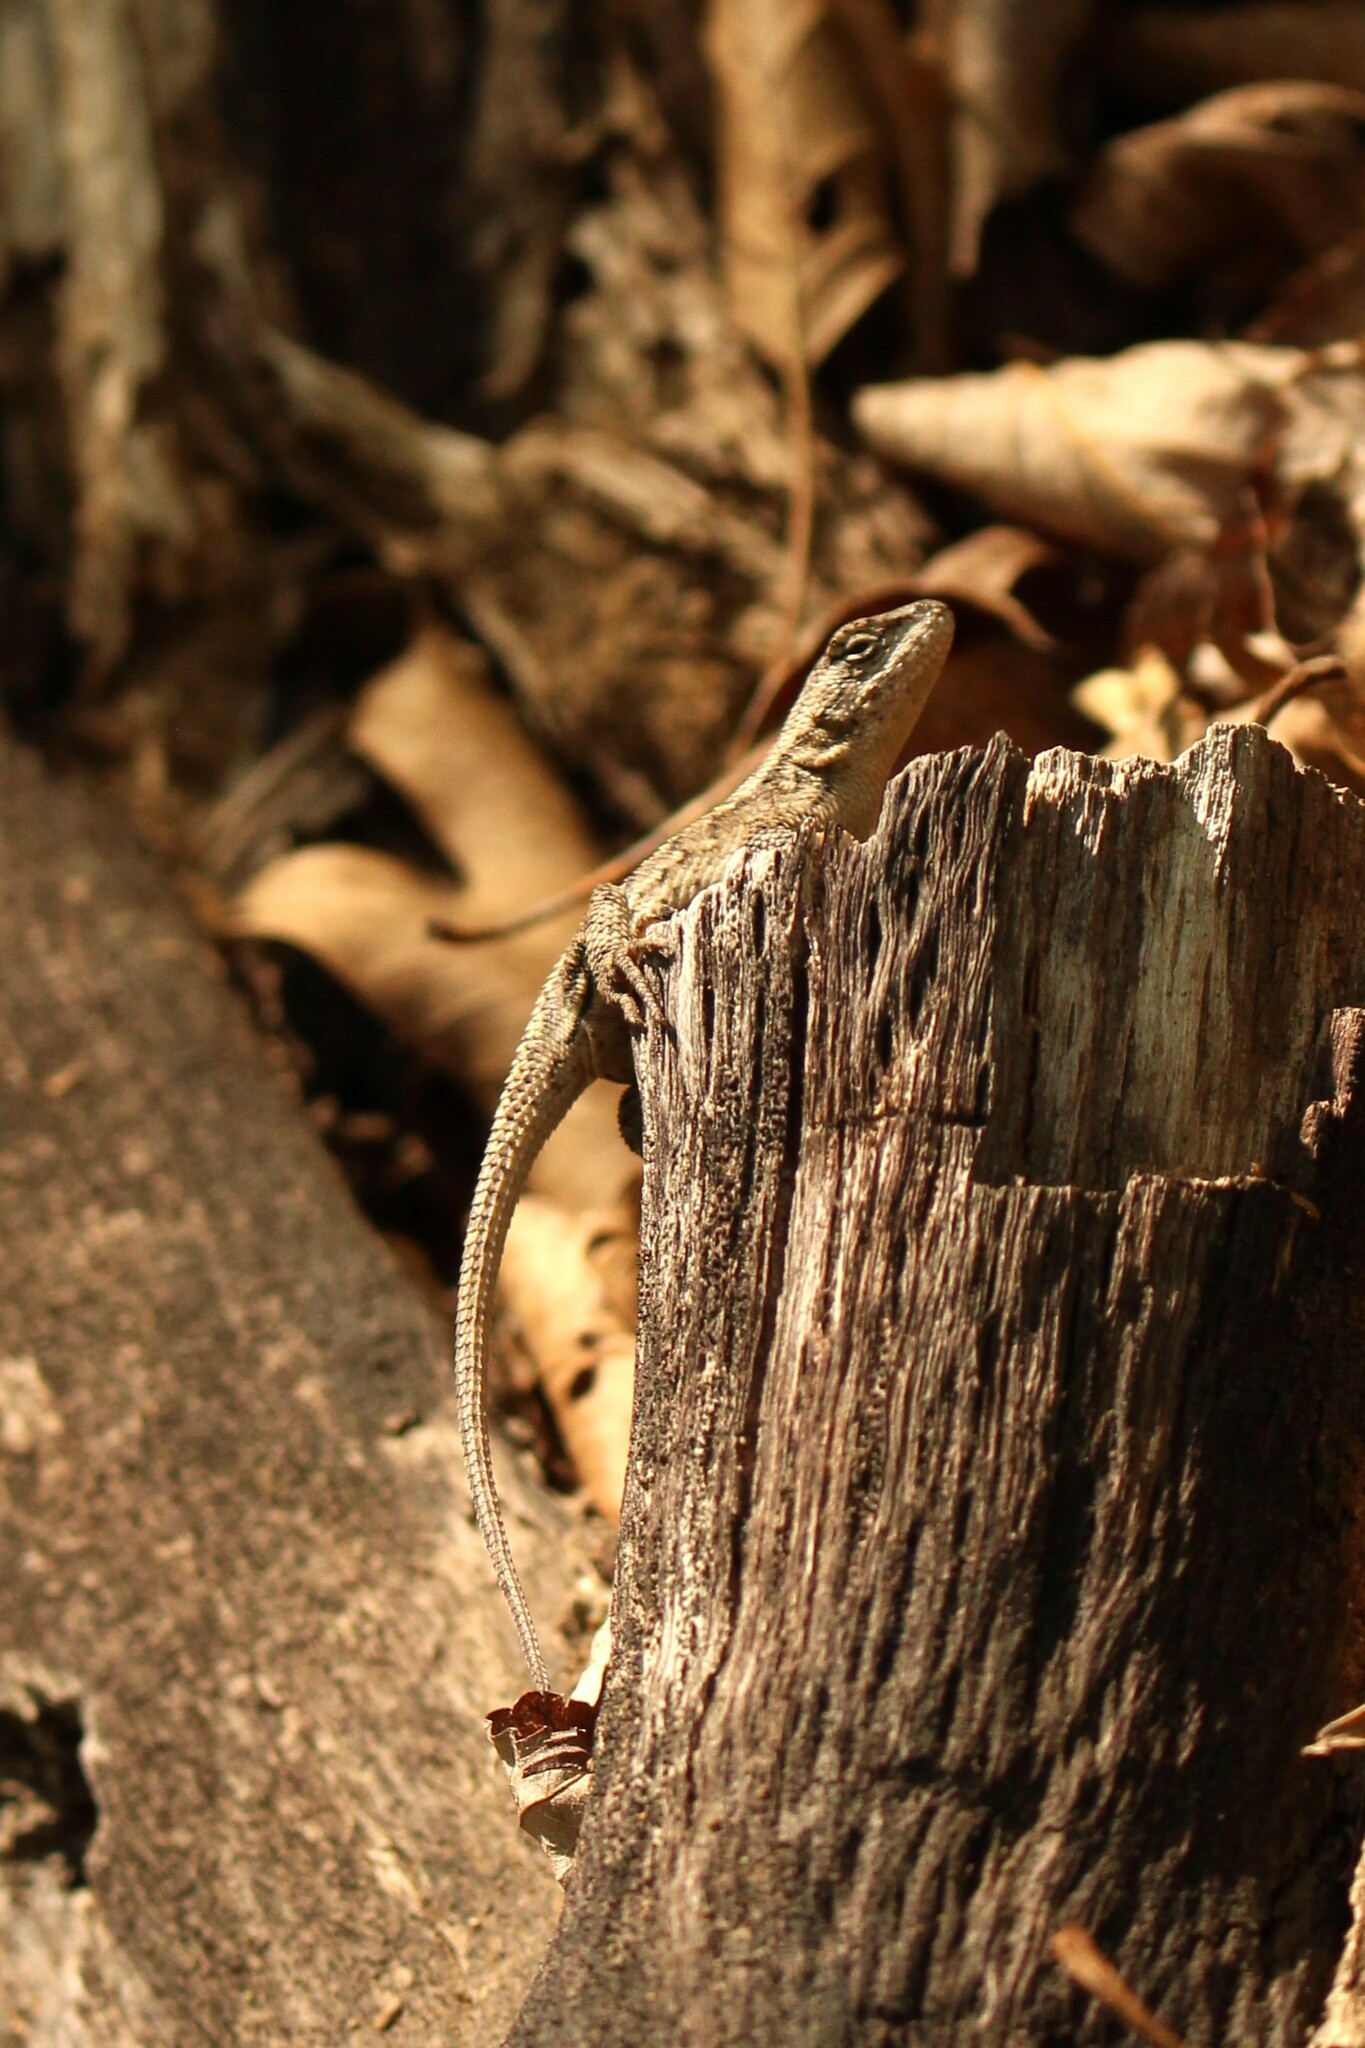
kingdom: Animalia
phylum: Chordata
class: Squamata
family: Phrynosomatidae
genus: Sceloporus
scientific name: Sceloporus undulatus
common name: Eastern fence lizard
